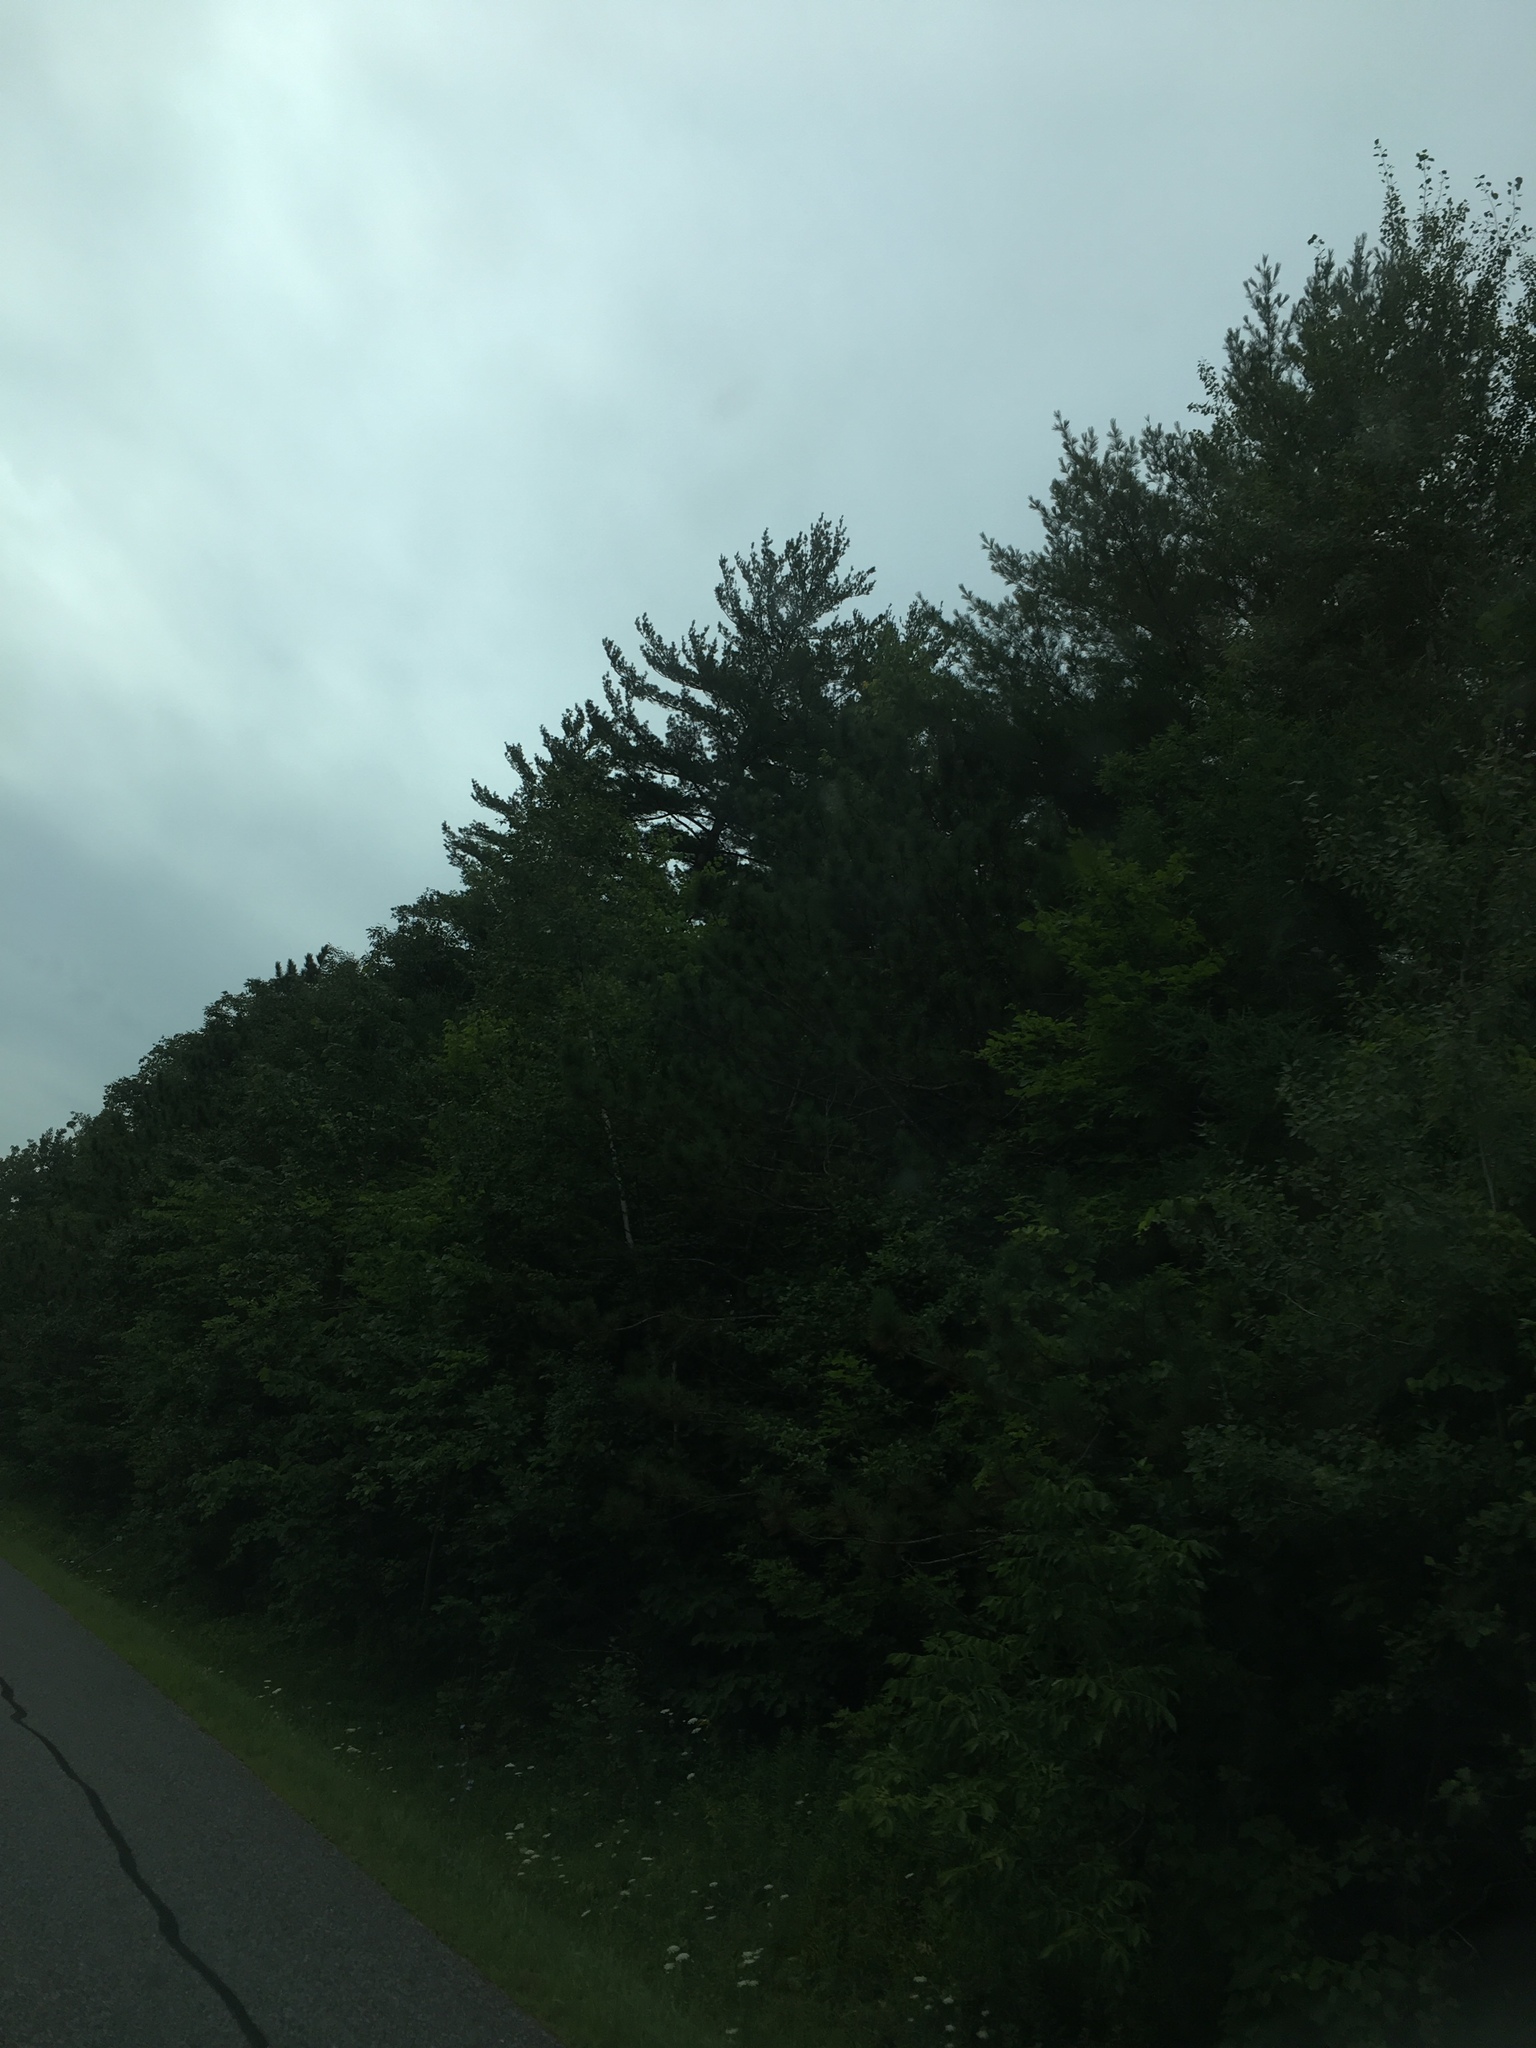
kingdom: Plantae
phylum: Tracheophyta
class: Pinopsida
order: Pinales
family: Pinaceae
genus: Pinus
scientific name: Pinus strobus
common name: Weymouth pine
